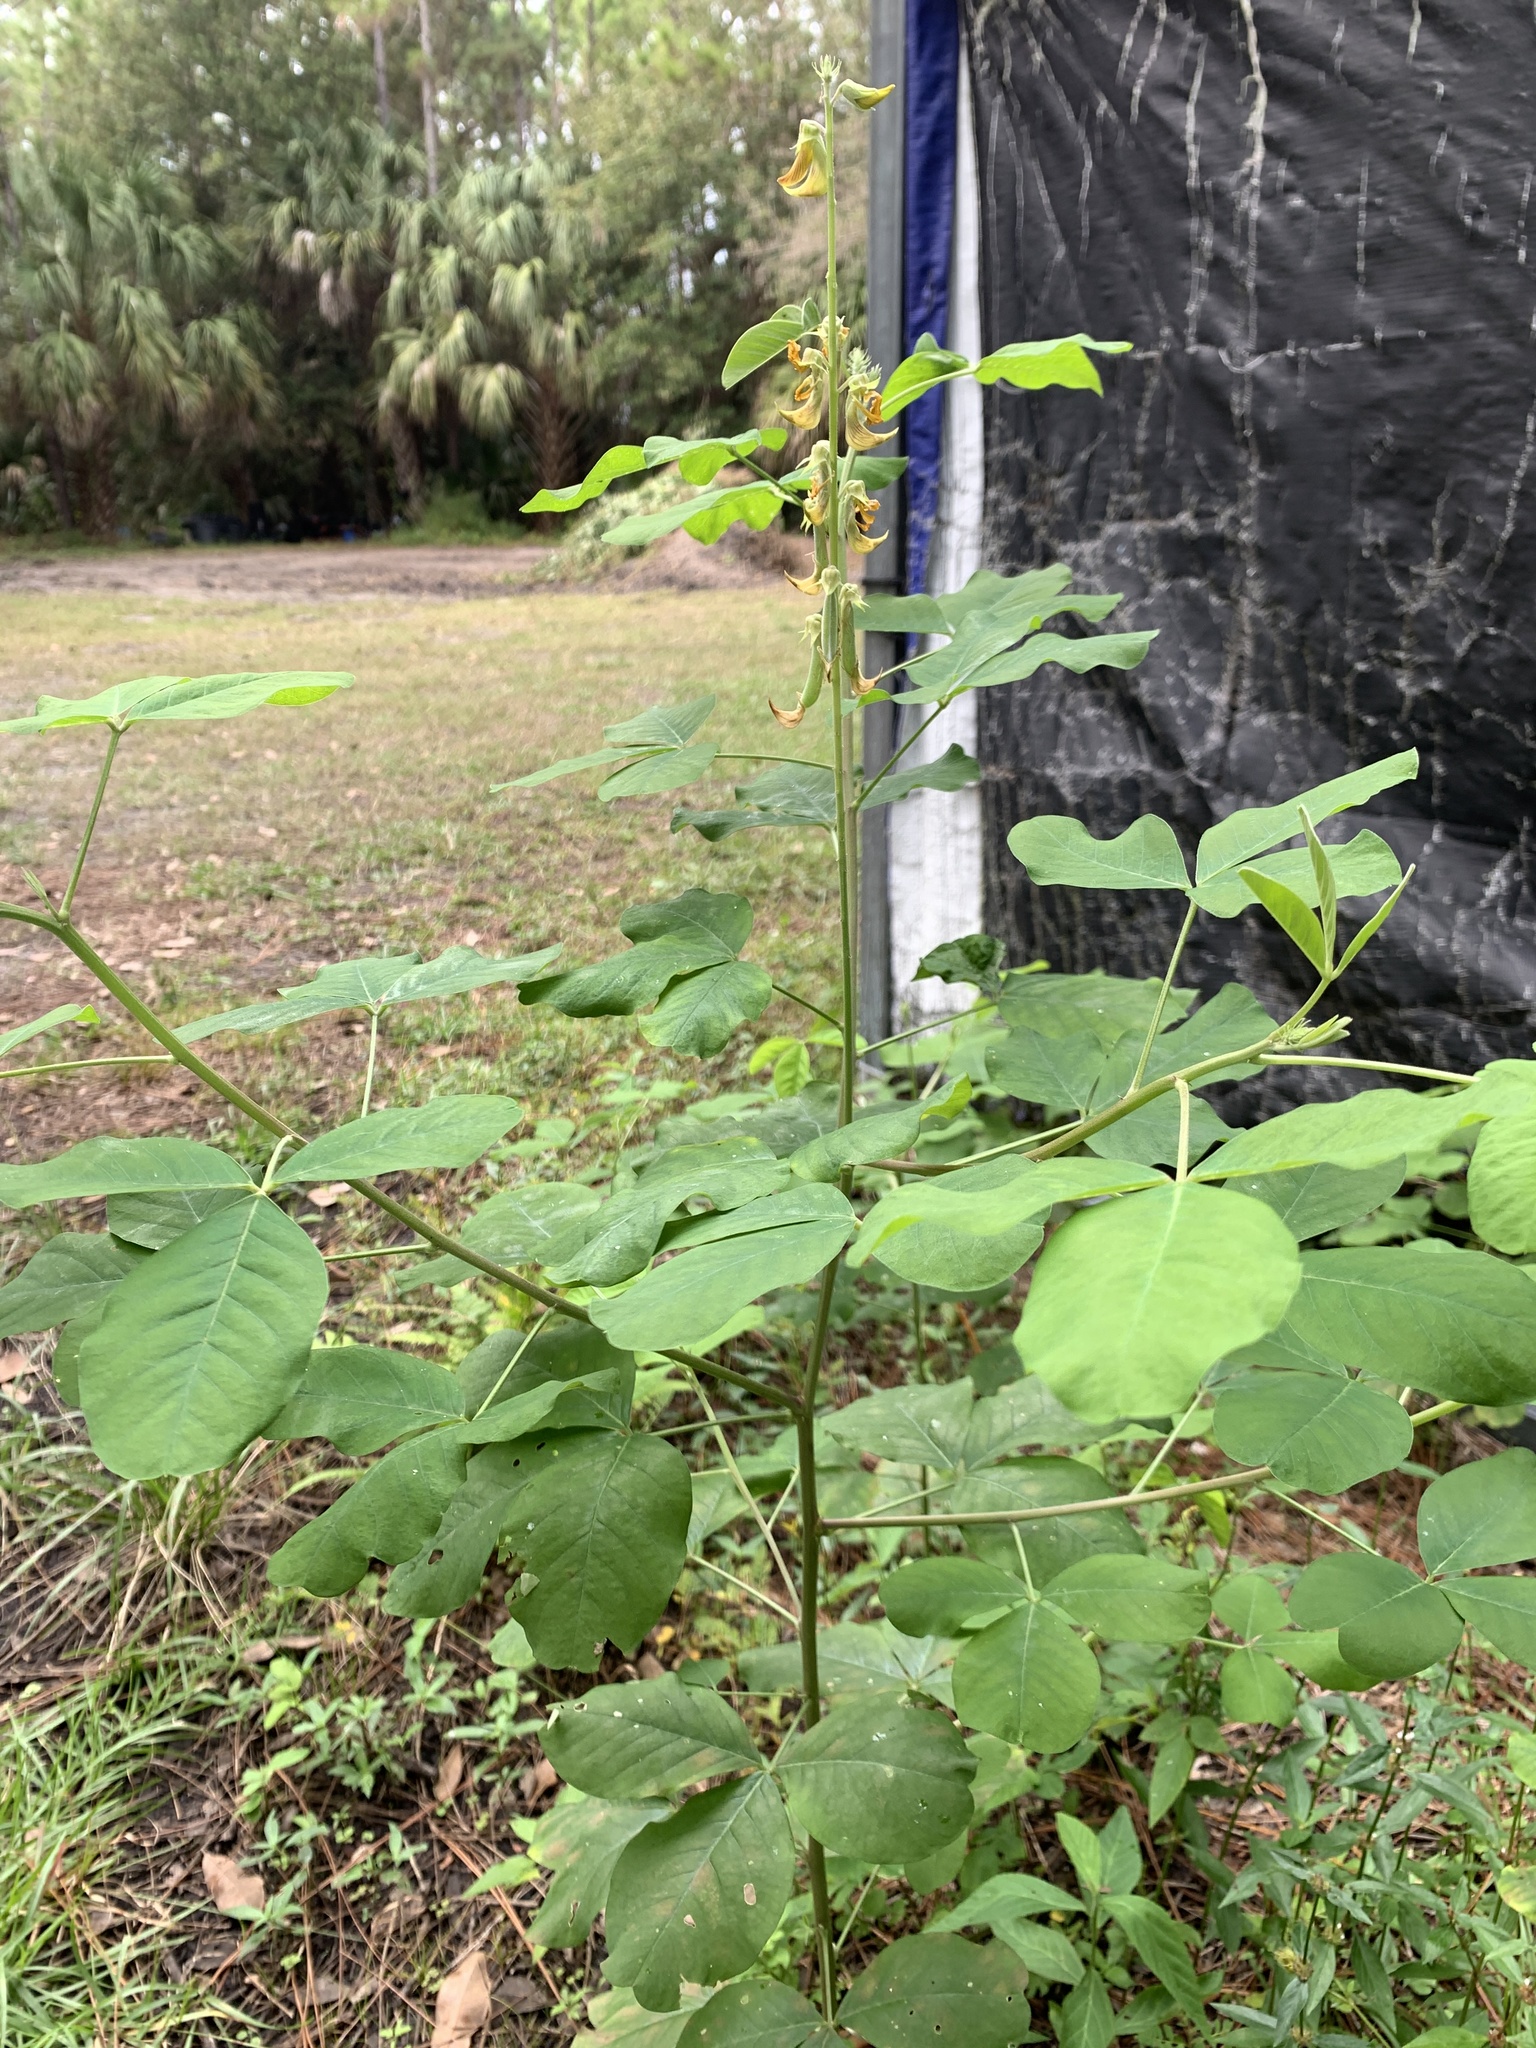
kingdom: Plantae
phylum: Tracheophyta
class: Magnoliopsida
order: Fabales
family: Fabaceae
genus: Crotalaria
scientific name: Crotalaria pallida
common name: Smooth rattlebox
